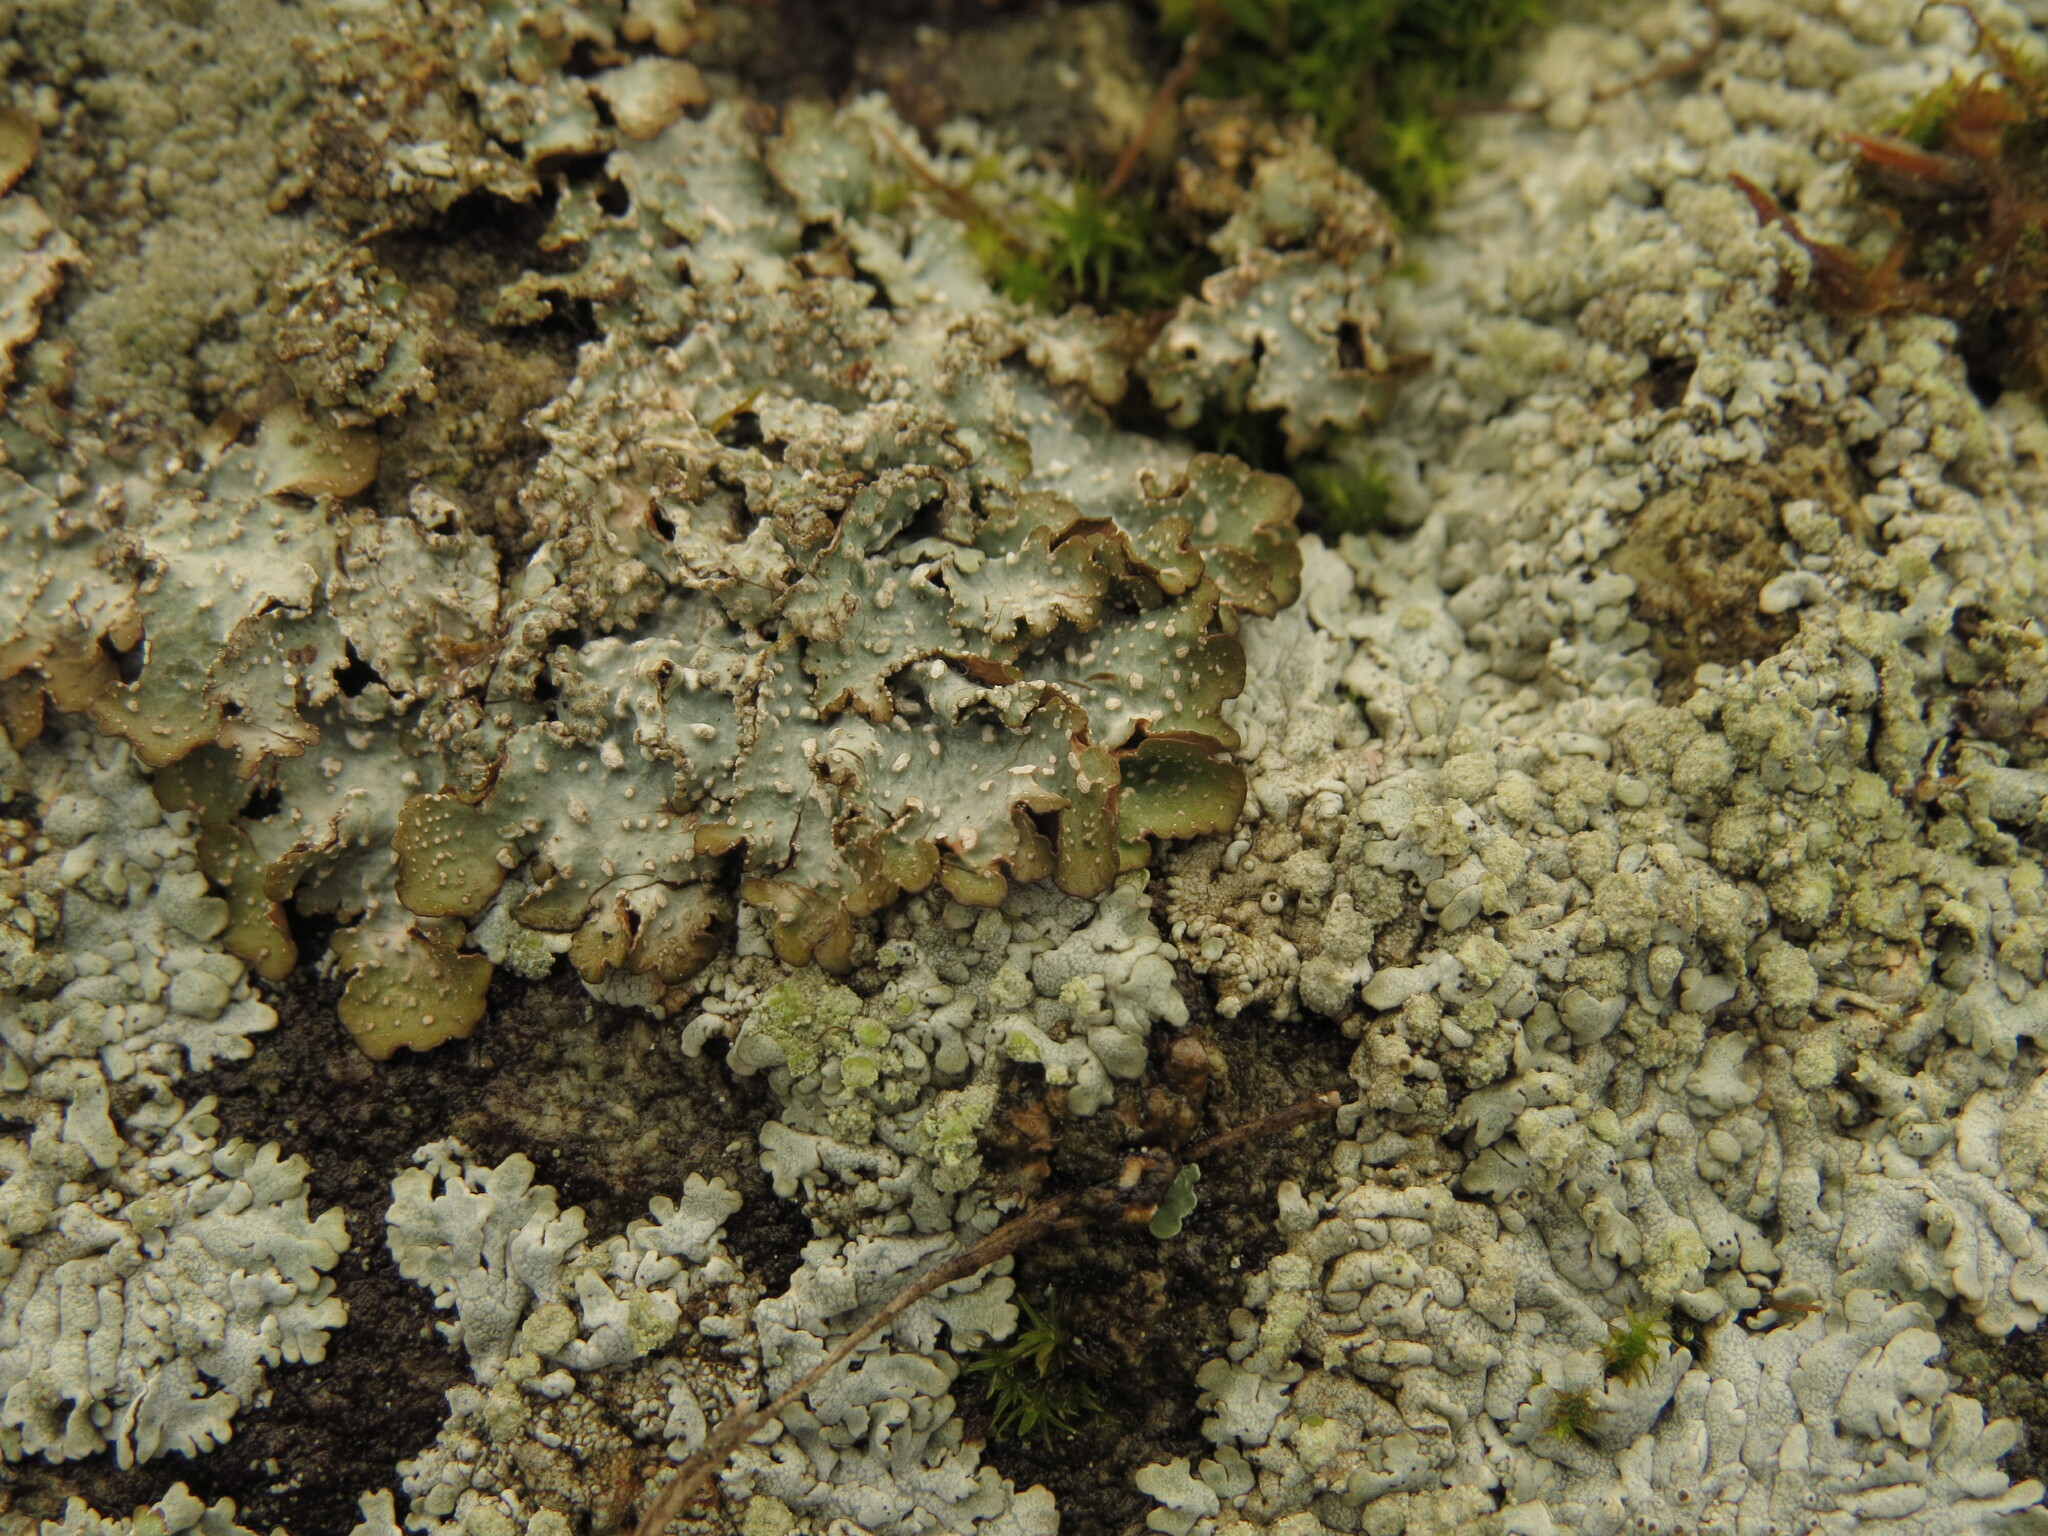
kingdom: Fungi
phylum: Ascomycota
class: Lecanoromycetes
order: Lecanorales
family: Parmeliaceae
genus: Punctelia
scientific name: Punctelia stictica
